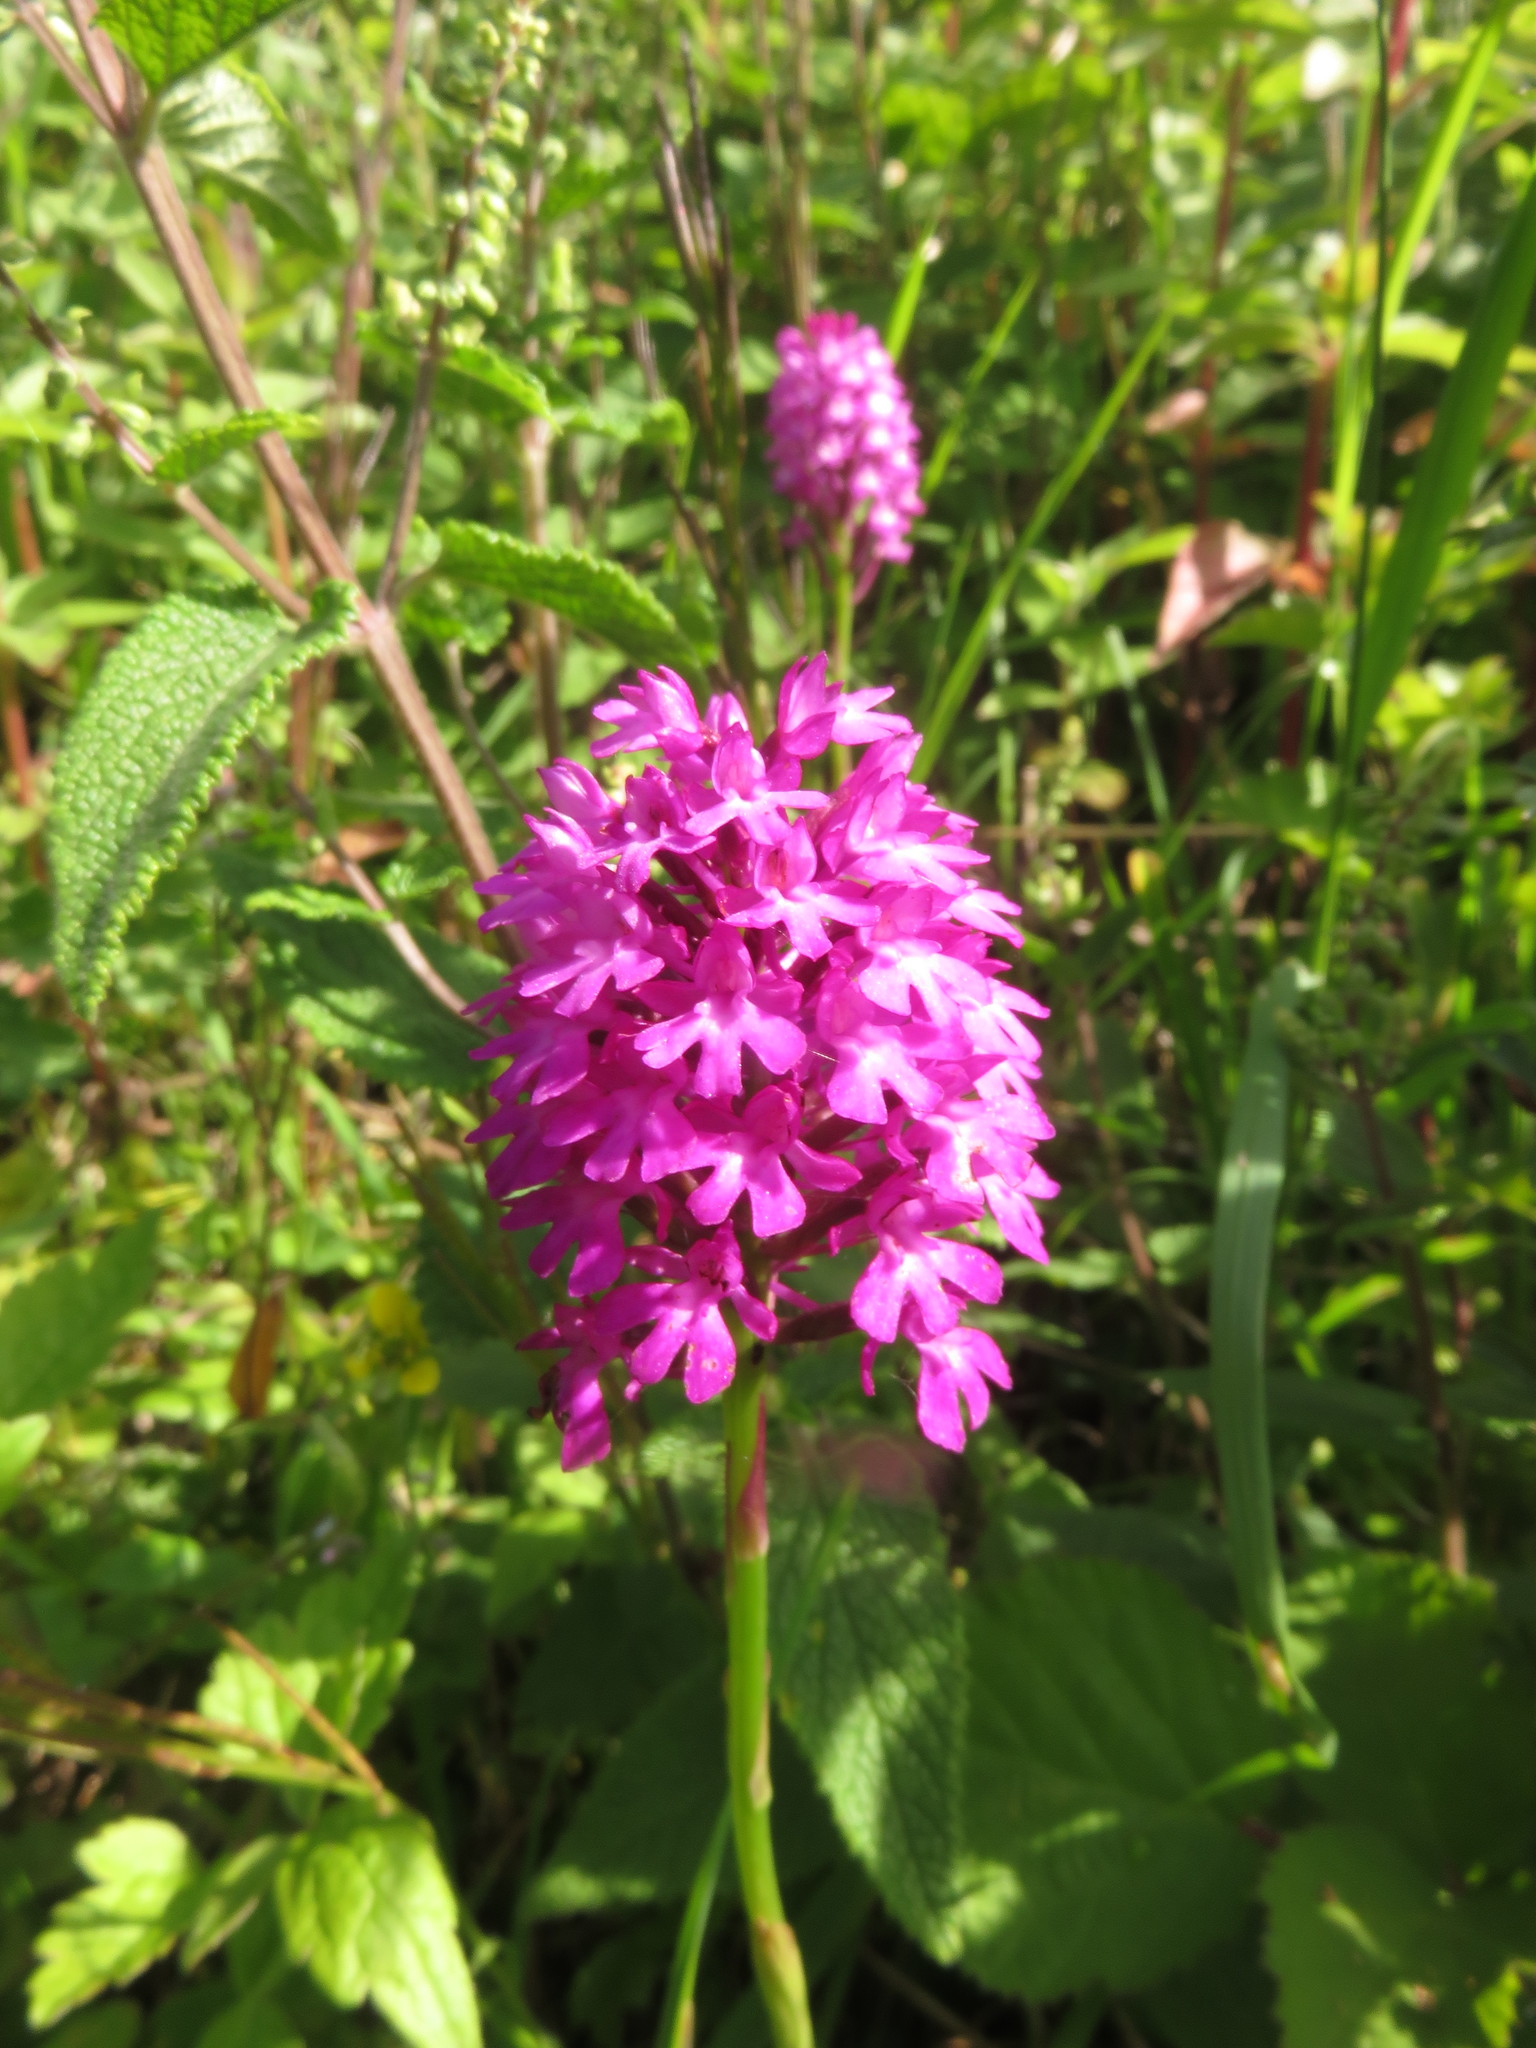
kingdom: Plantae
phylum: Tracheophyta
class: Liliopsida
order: Asparagales
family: Orchidaceae
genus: Anacamptis
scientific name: Anacamptis pyramidalis
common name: Pyramidal orchid
